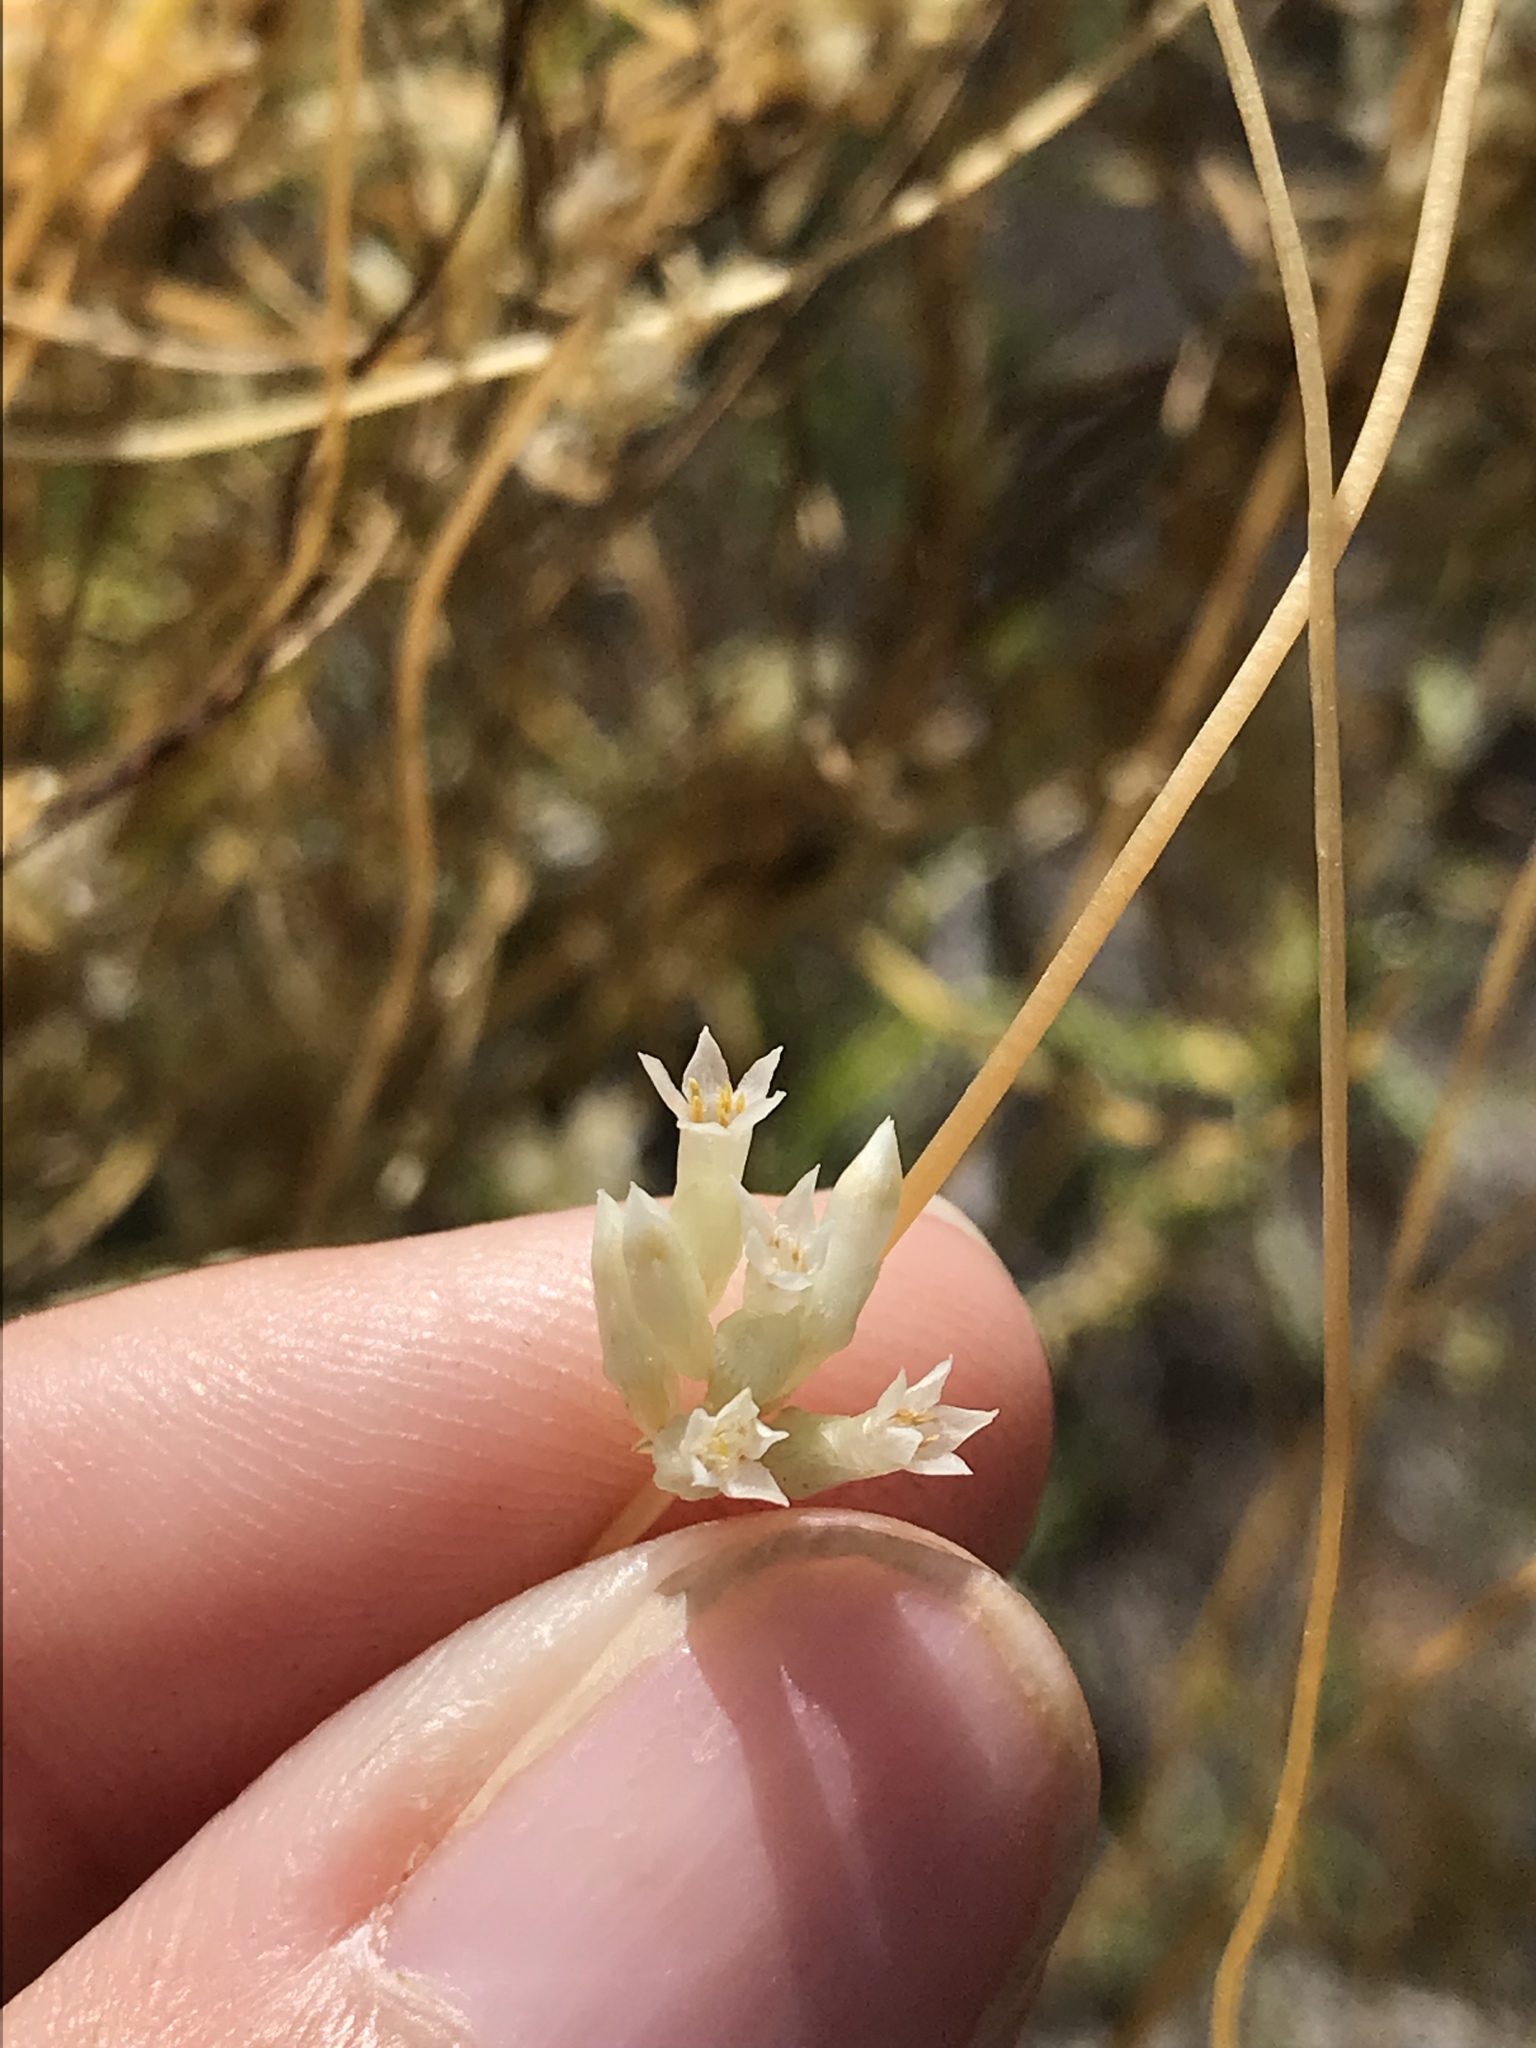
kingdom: Plantae
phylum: Tracheophyta
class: Magnoliopsida
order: Solanales
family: Convolvulaceae
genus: Cuscuta
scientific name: Cuscuta subinclusa
